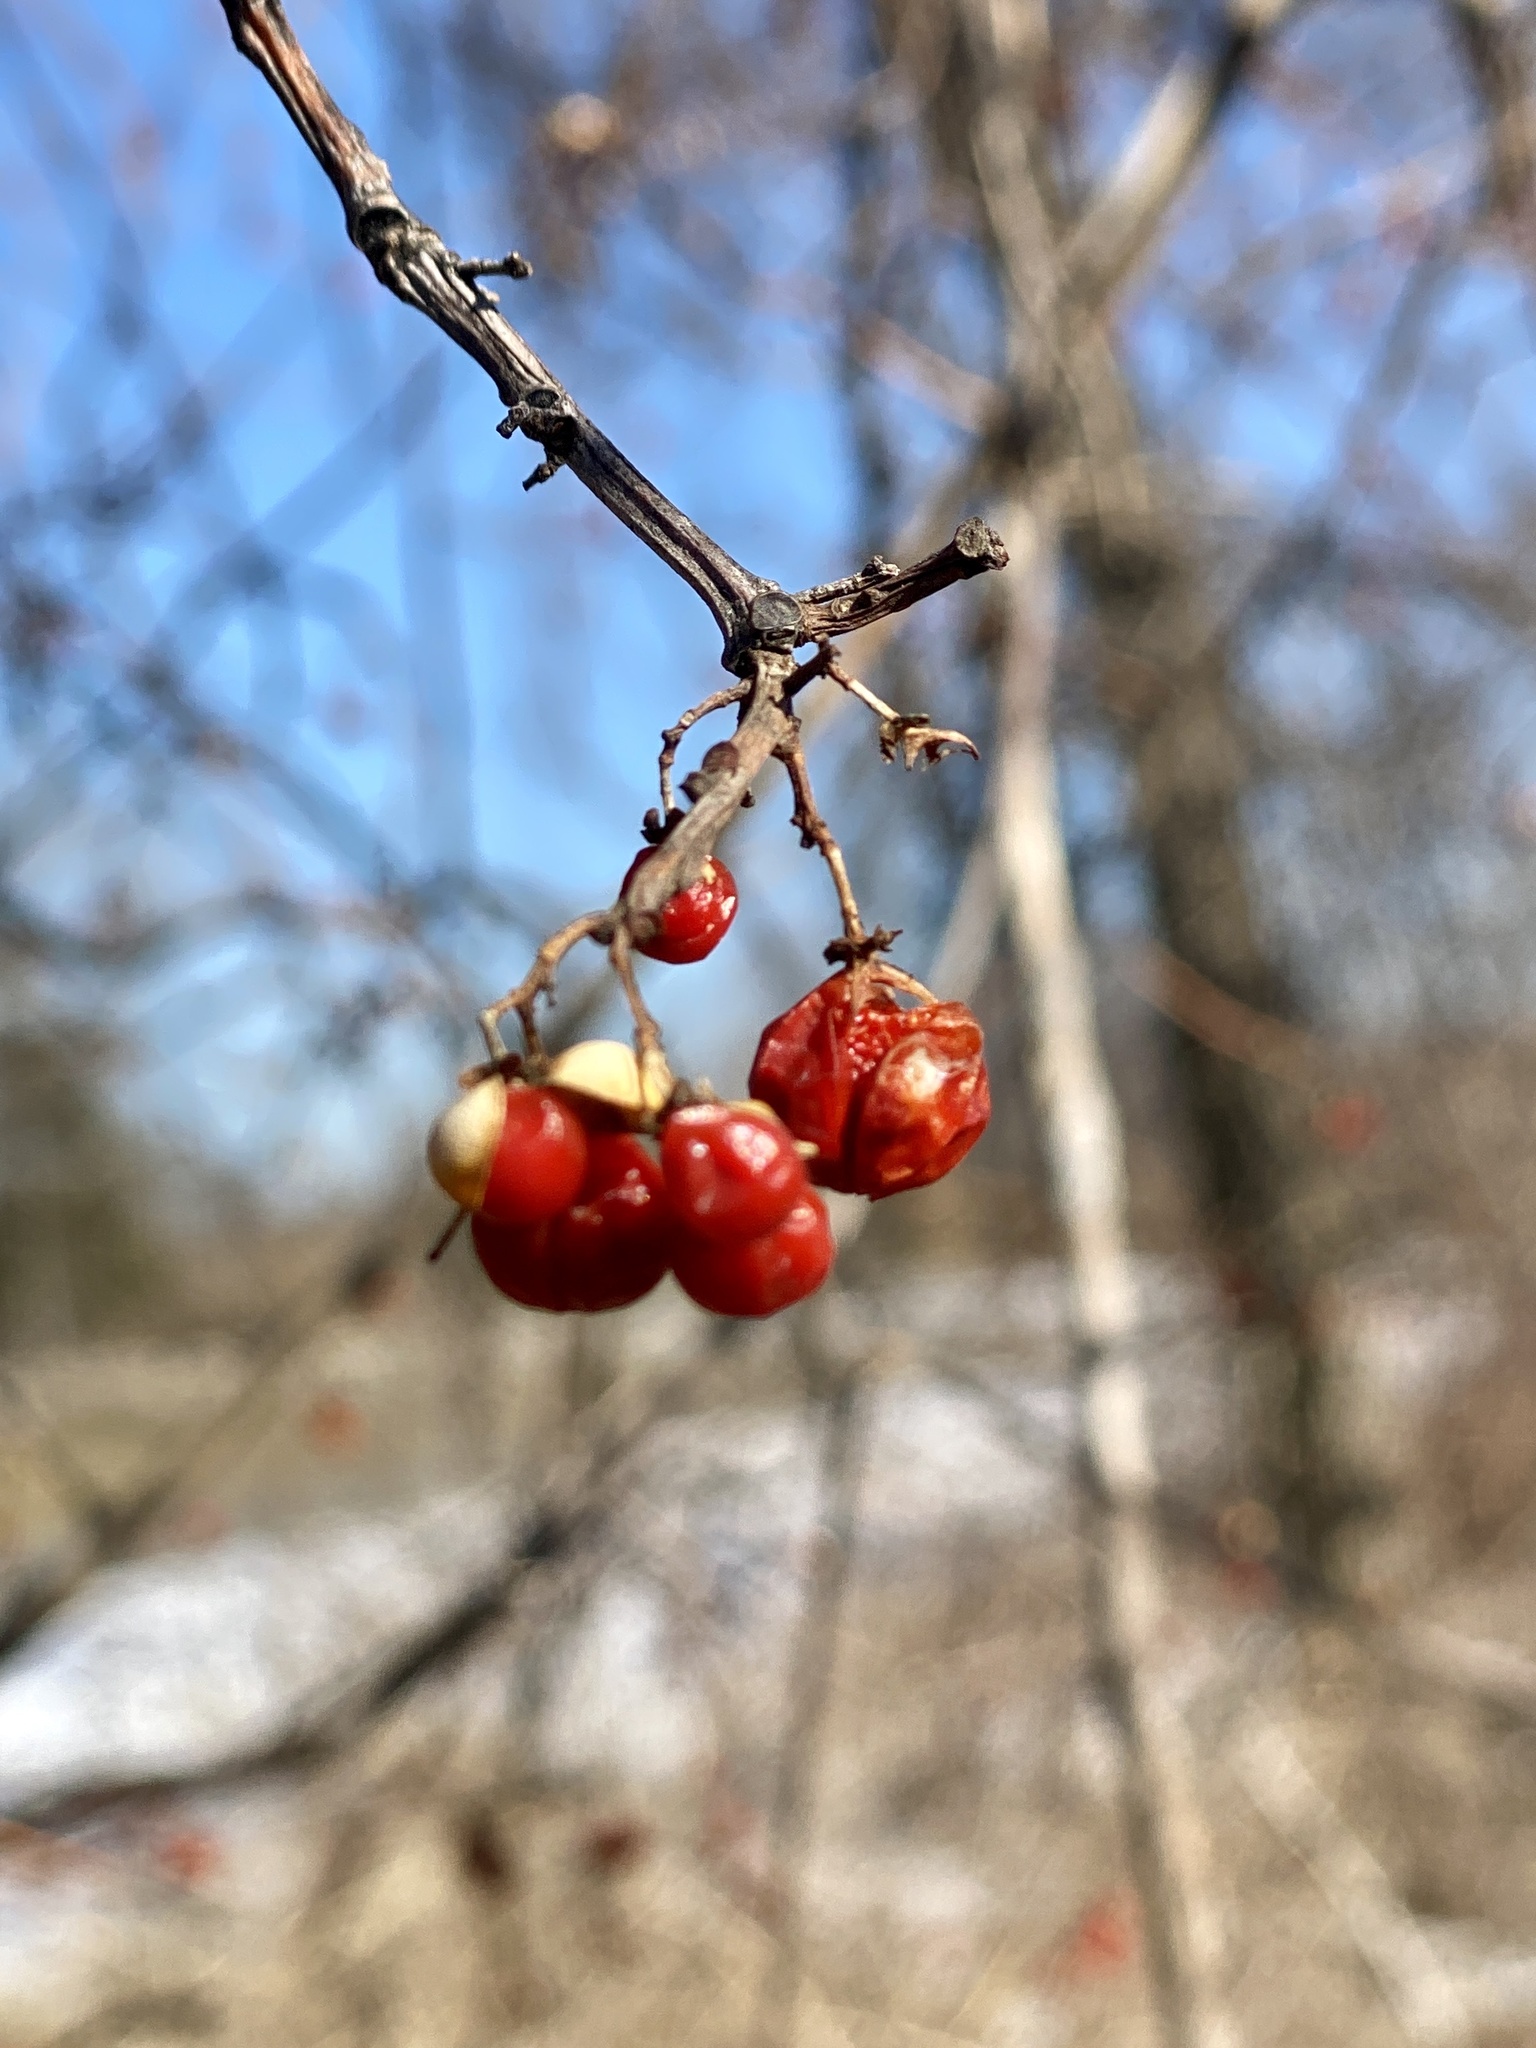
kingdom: Plantae
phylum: Tracheophyta
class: Magnoliopsida
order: Celastrales
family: Celastraceae
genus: Celastrus
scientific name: Celastrus orbiculatus
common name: Oriental bittersweet
